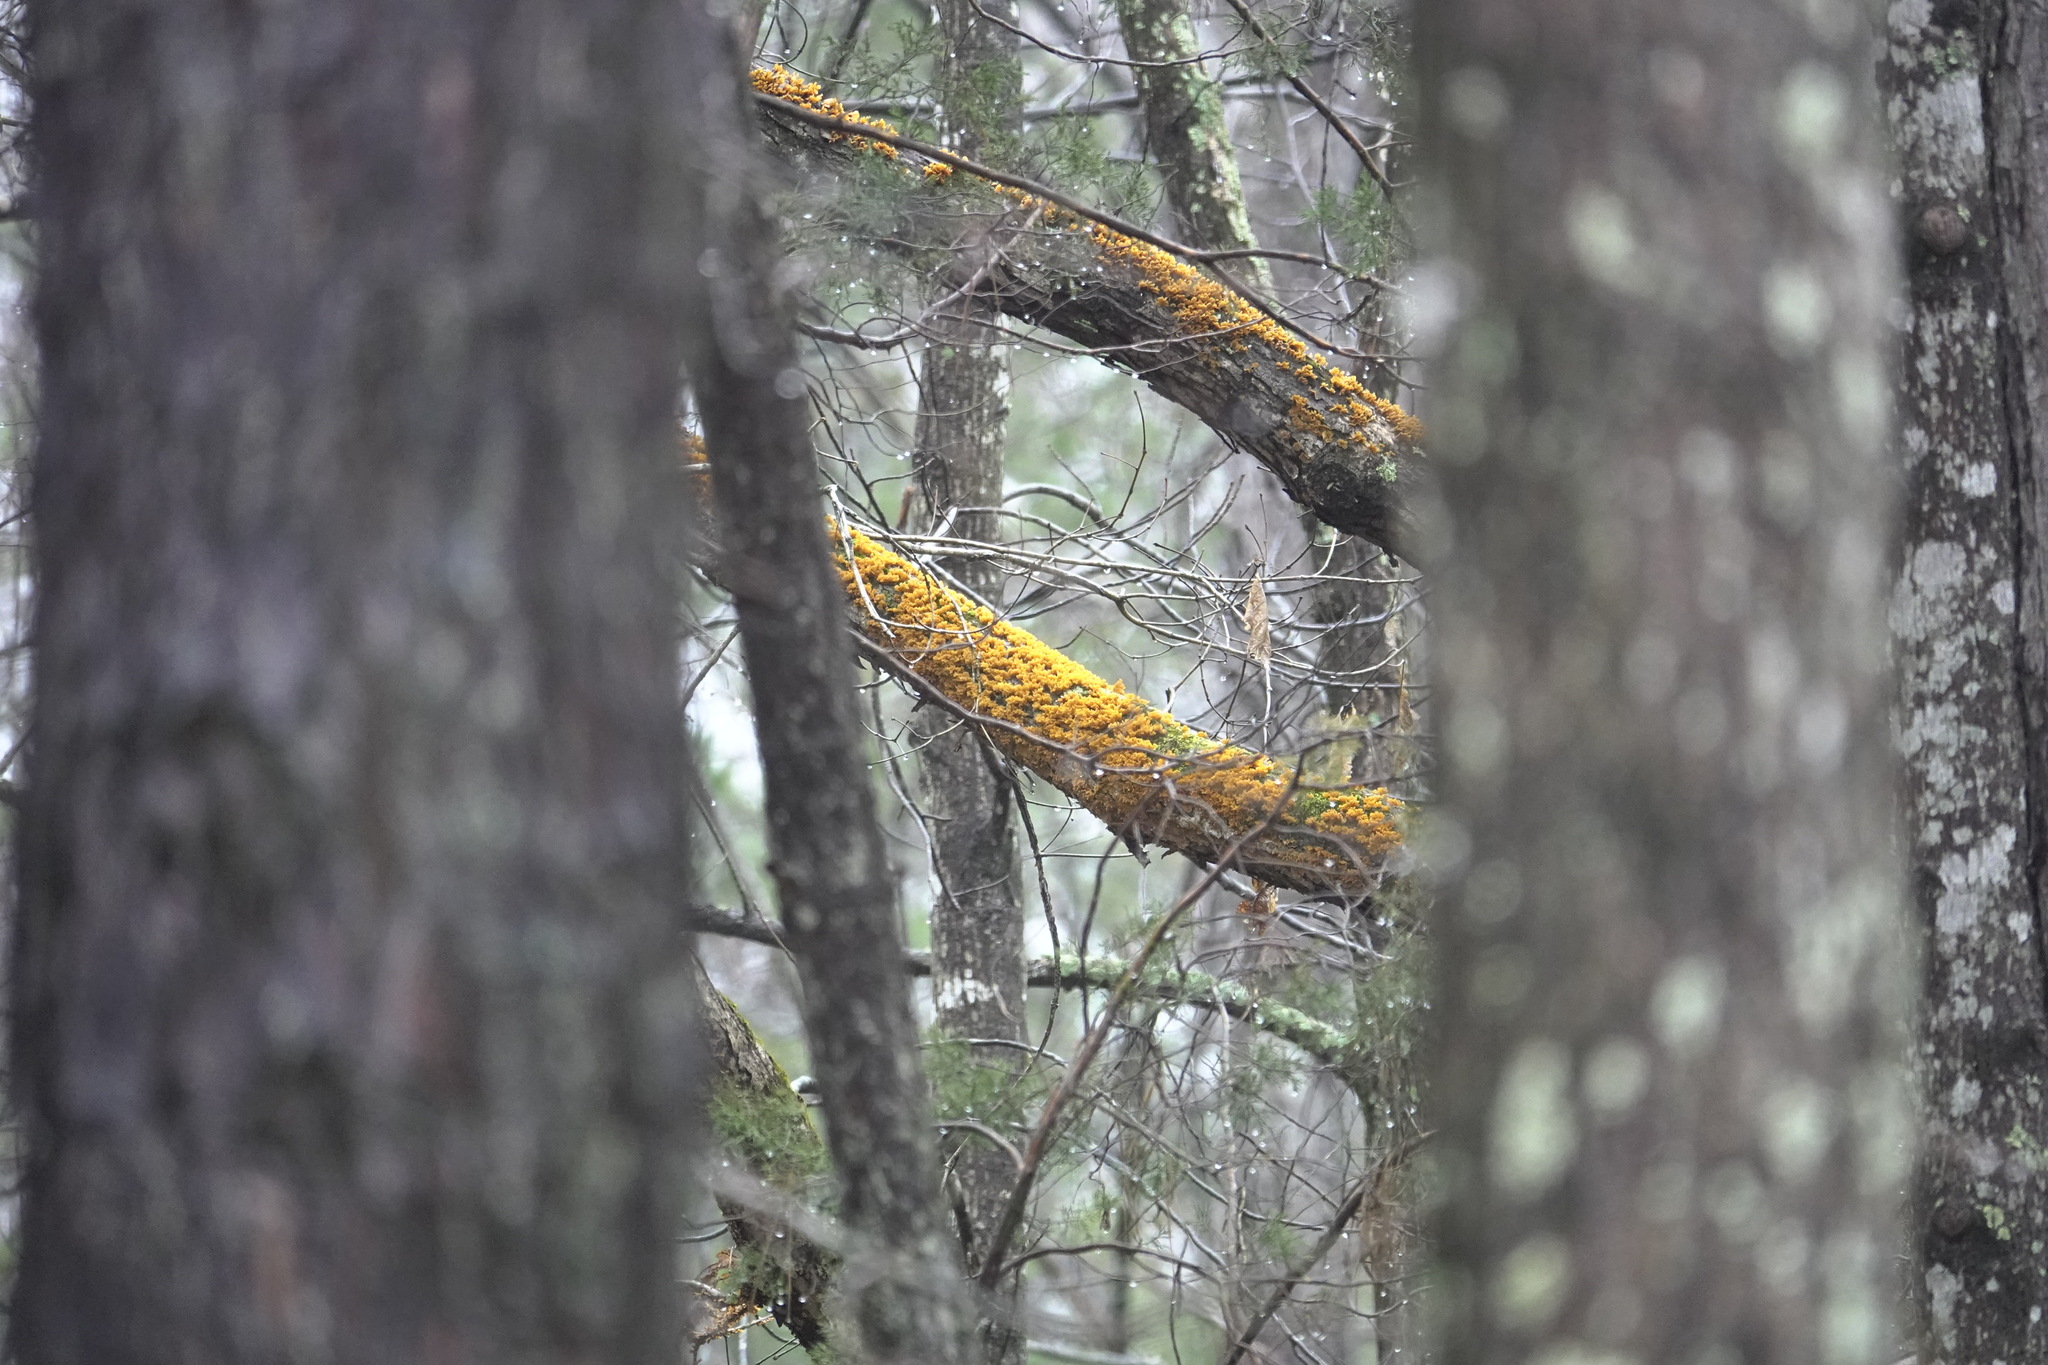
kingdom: Fungi
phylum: Basidiomycota
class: Agaricomycetes
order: Russulales
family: Stereaceae
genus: Stereum
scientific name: Stereum complicatum
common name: Crowded parchment
